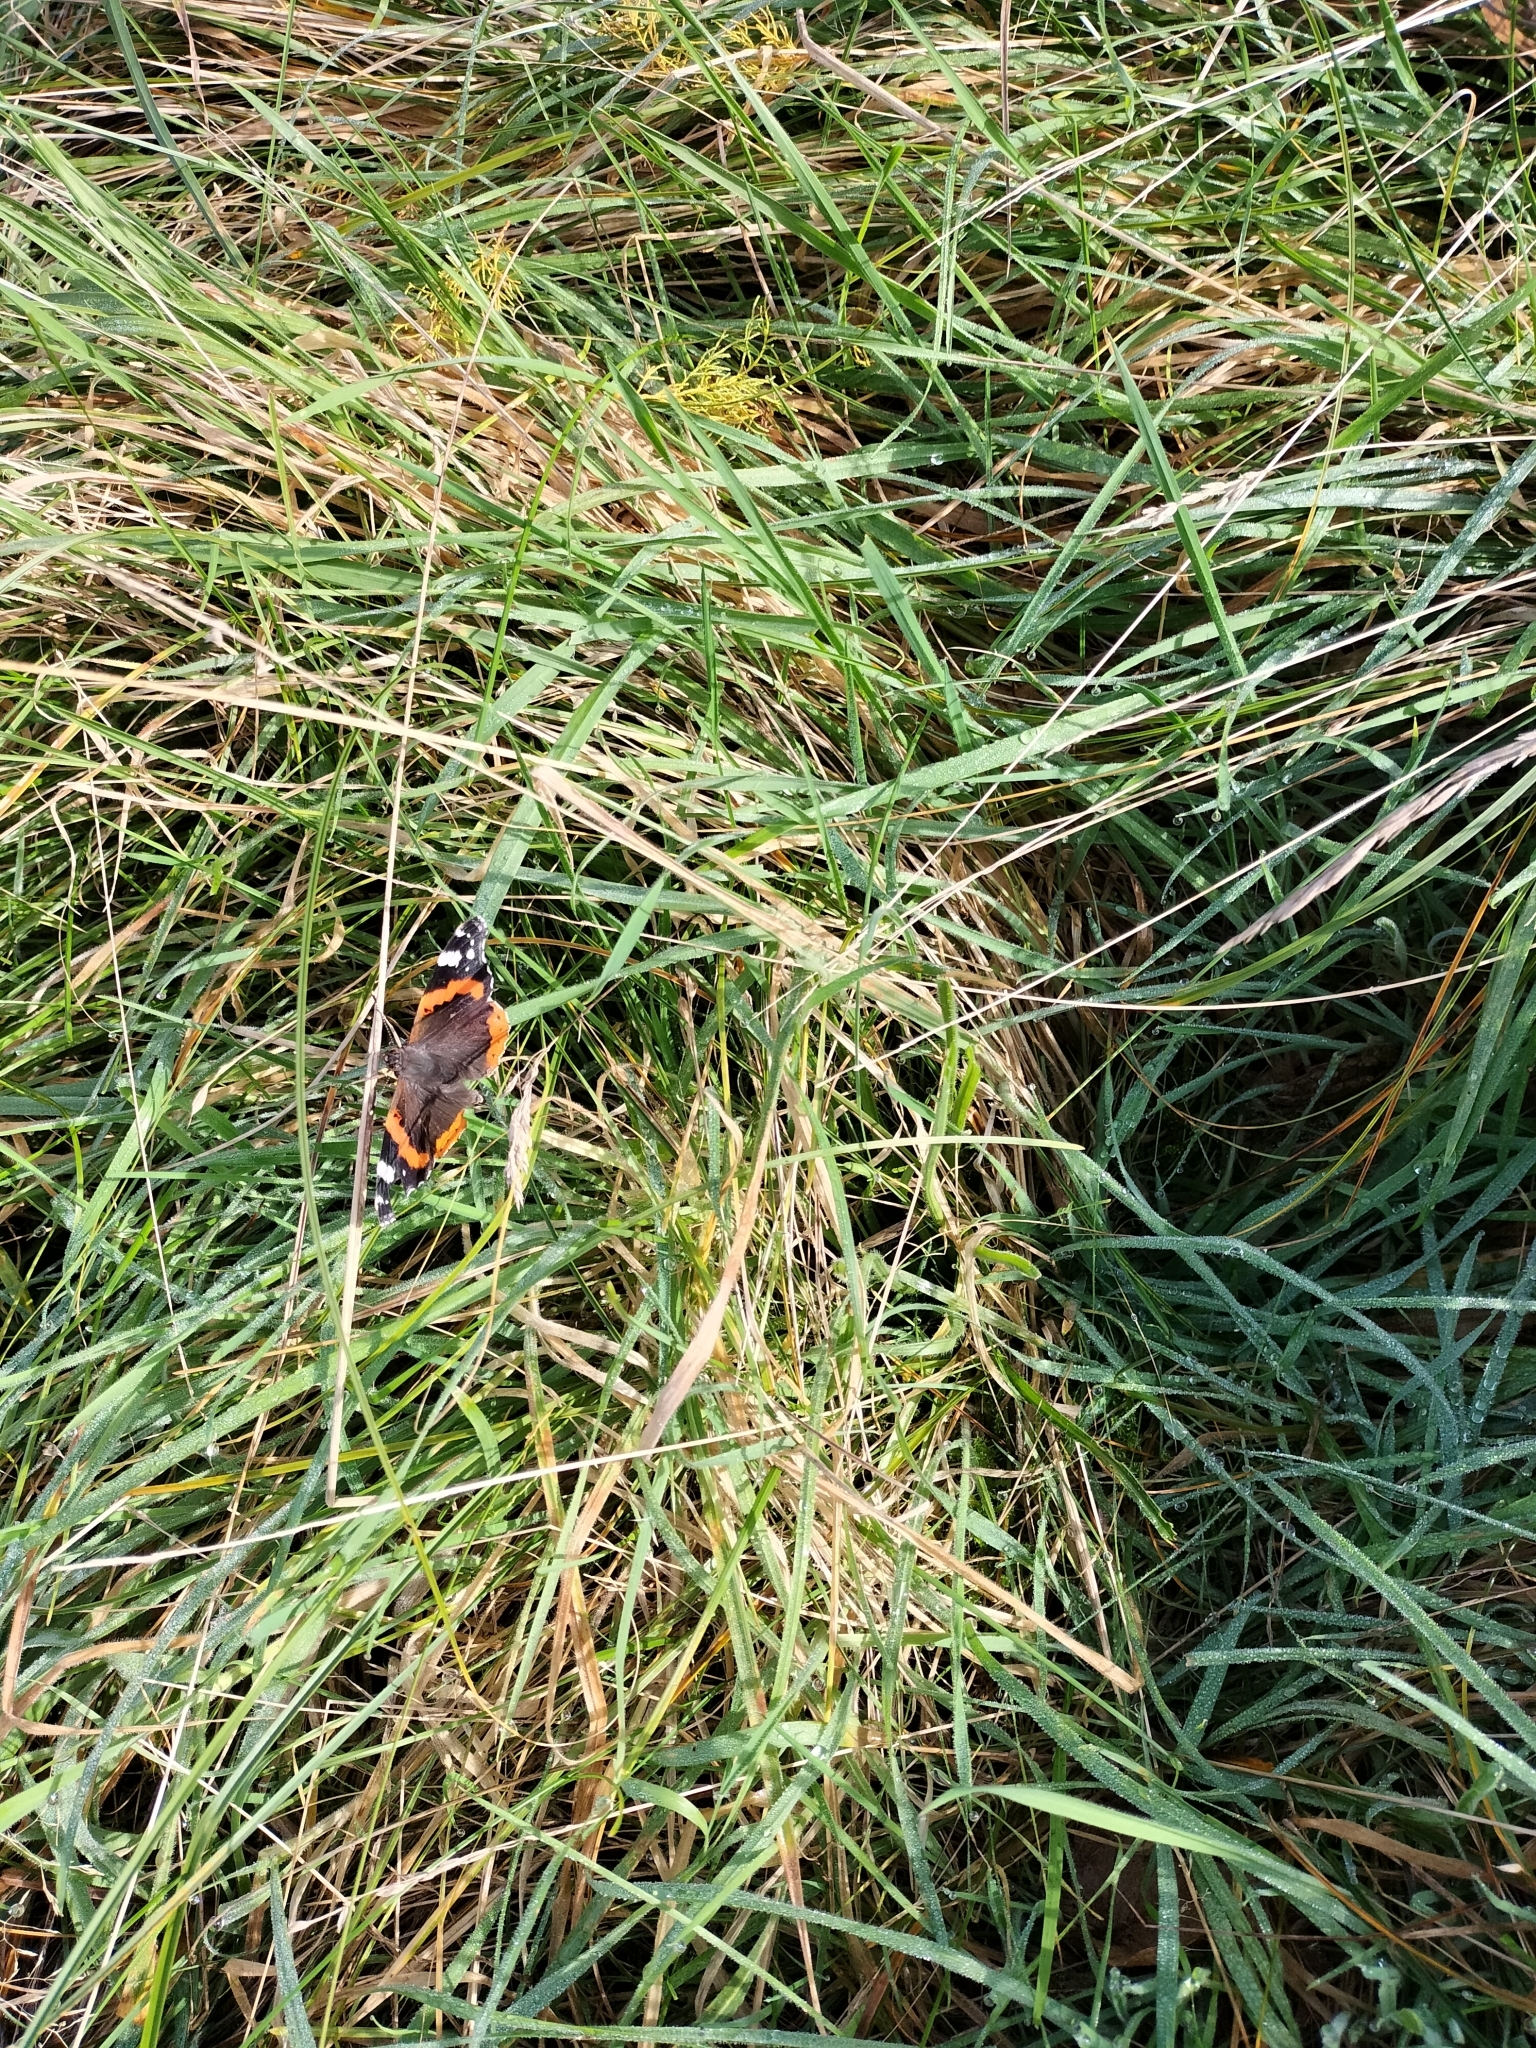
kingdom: Animalia
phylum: Arthropoda
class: Insecta
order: Lepidoptera
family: Nymphalidae
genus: Vanessa
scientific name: Vanessa atalanta
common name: Red admiral
